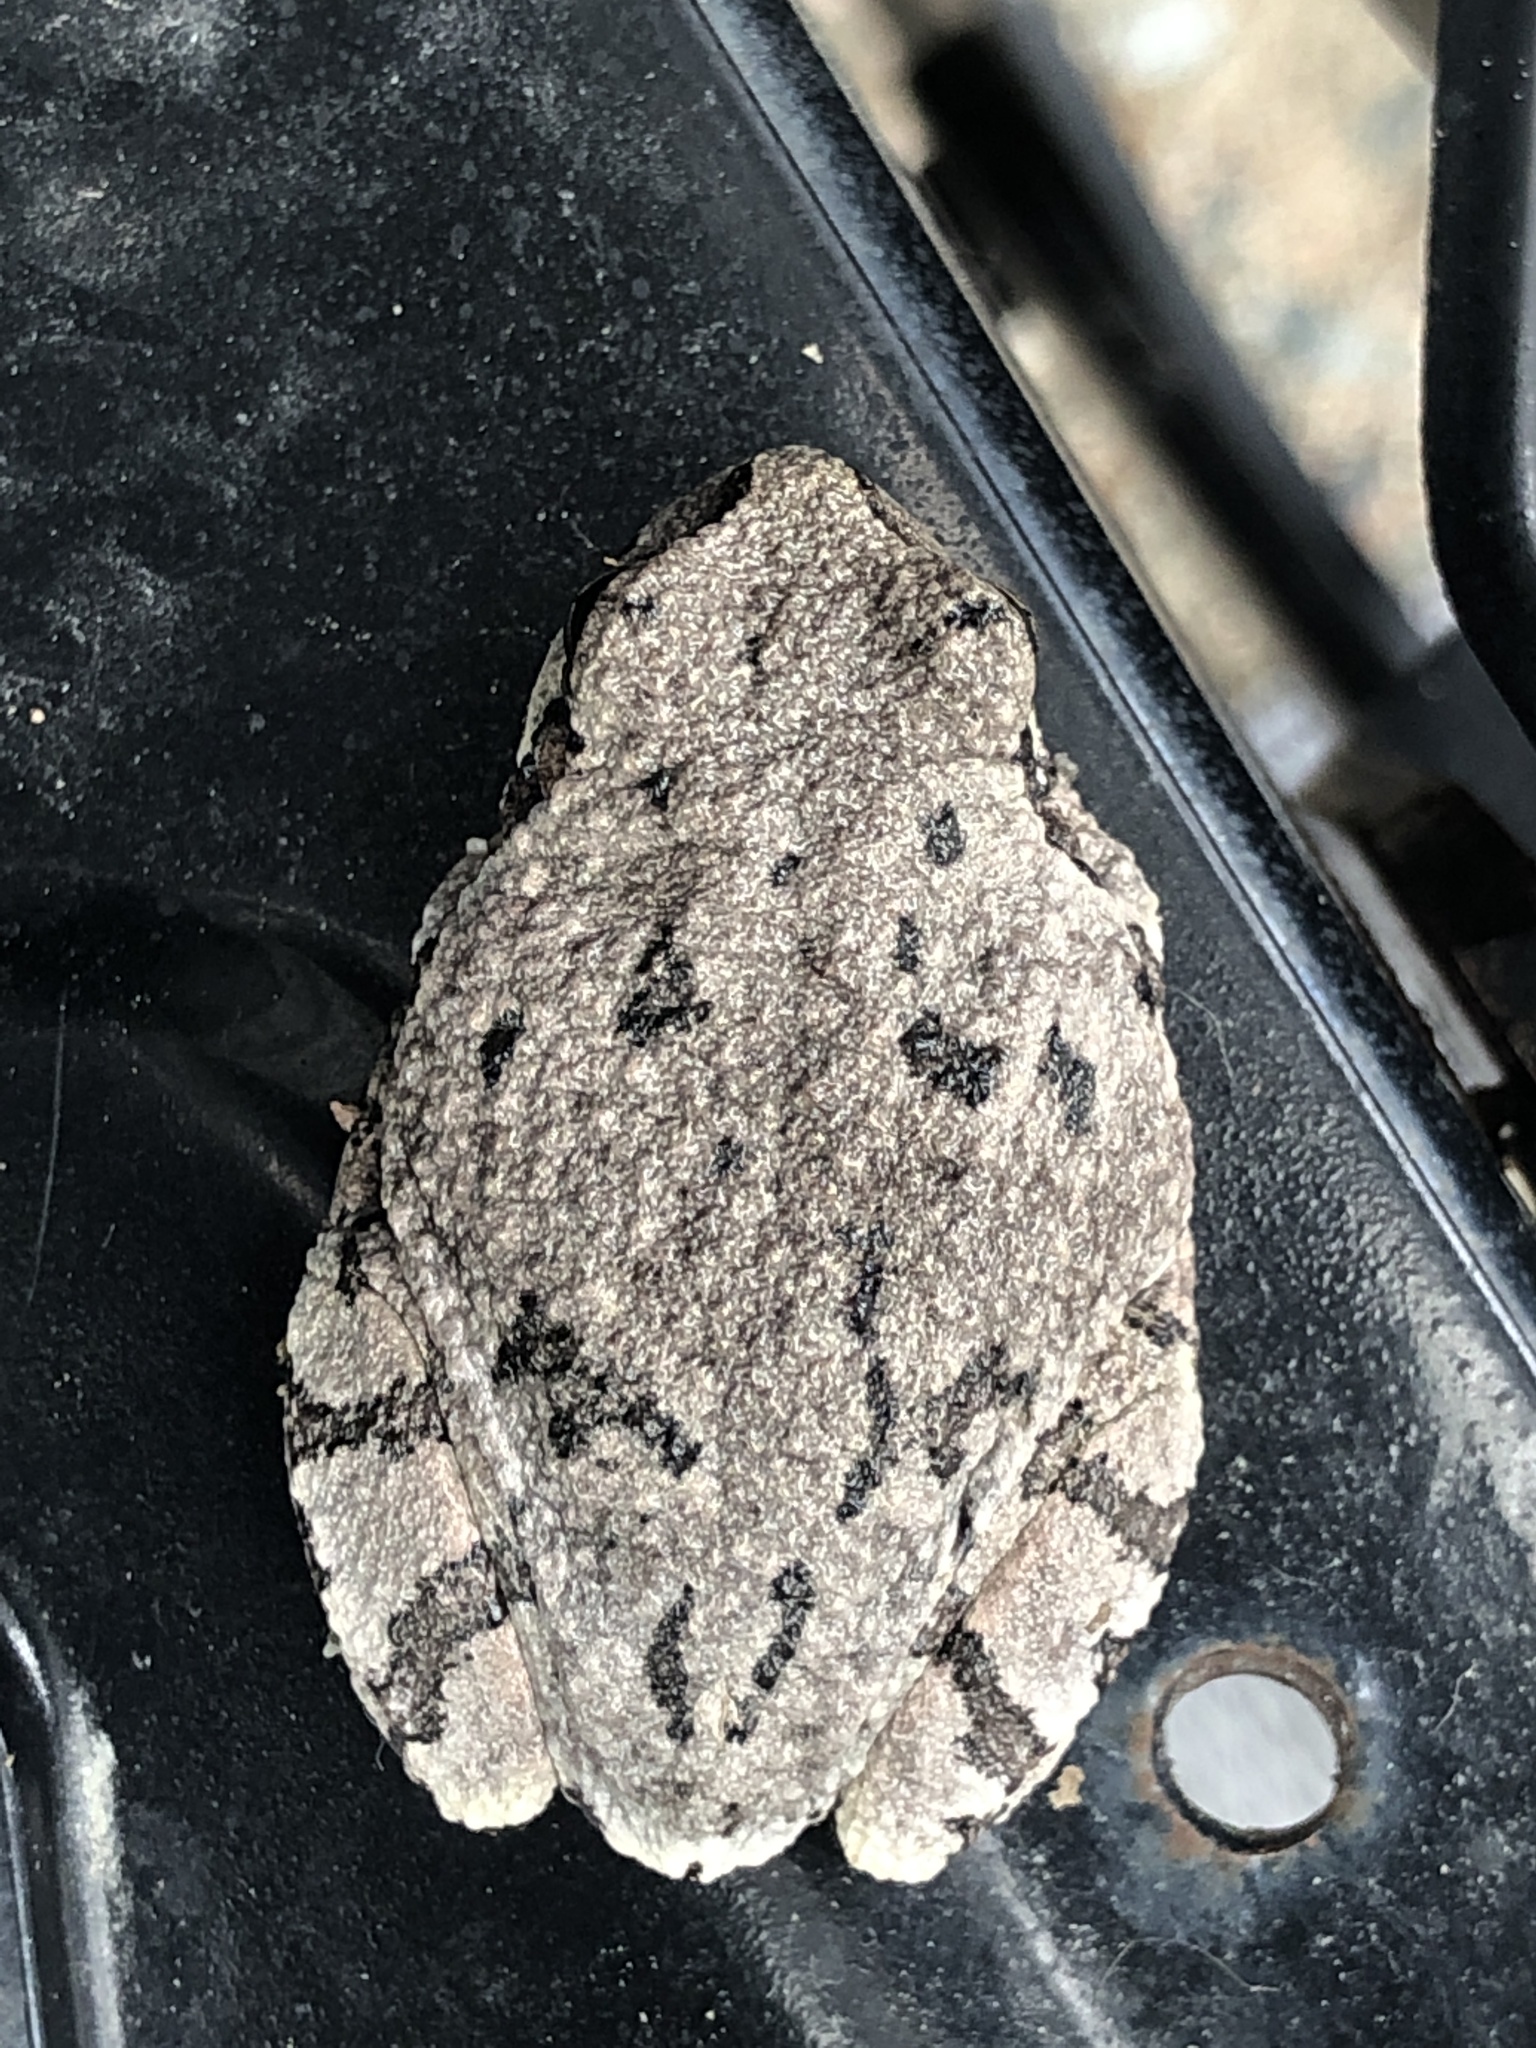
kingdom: Animalia
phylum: Chordata
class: Amphibia
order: Anura
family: Hylidae
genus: Dryophytes
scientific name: Dryophytes versicolor
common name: Gray treefrog
